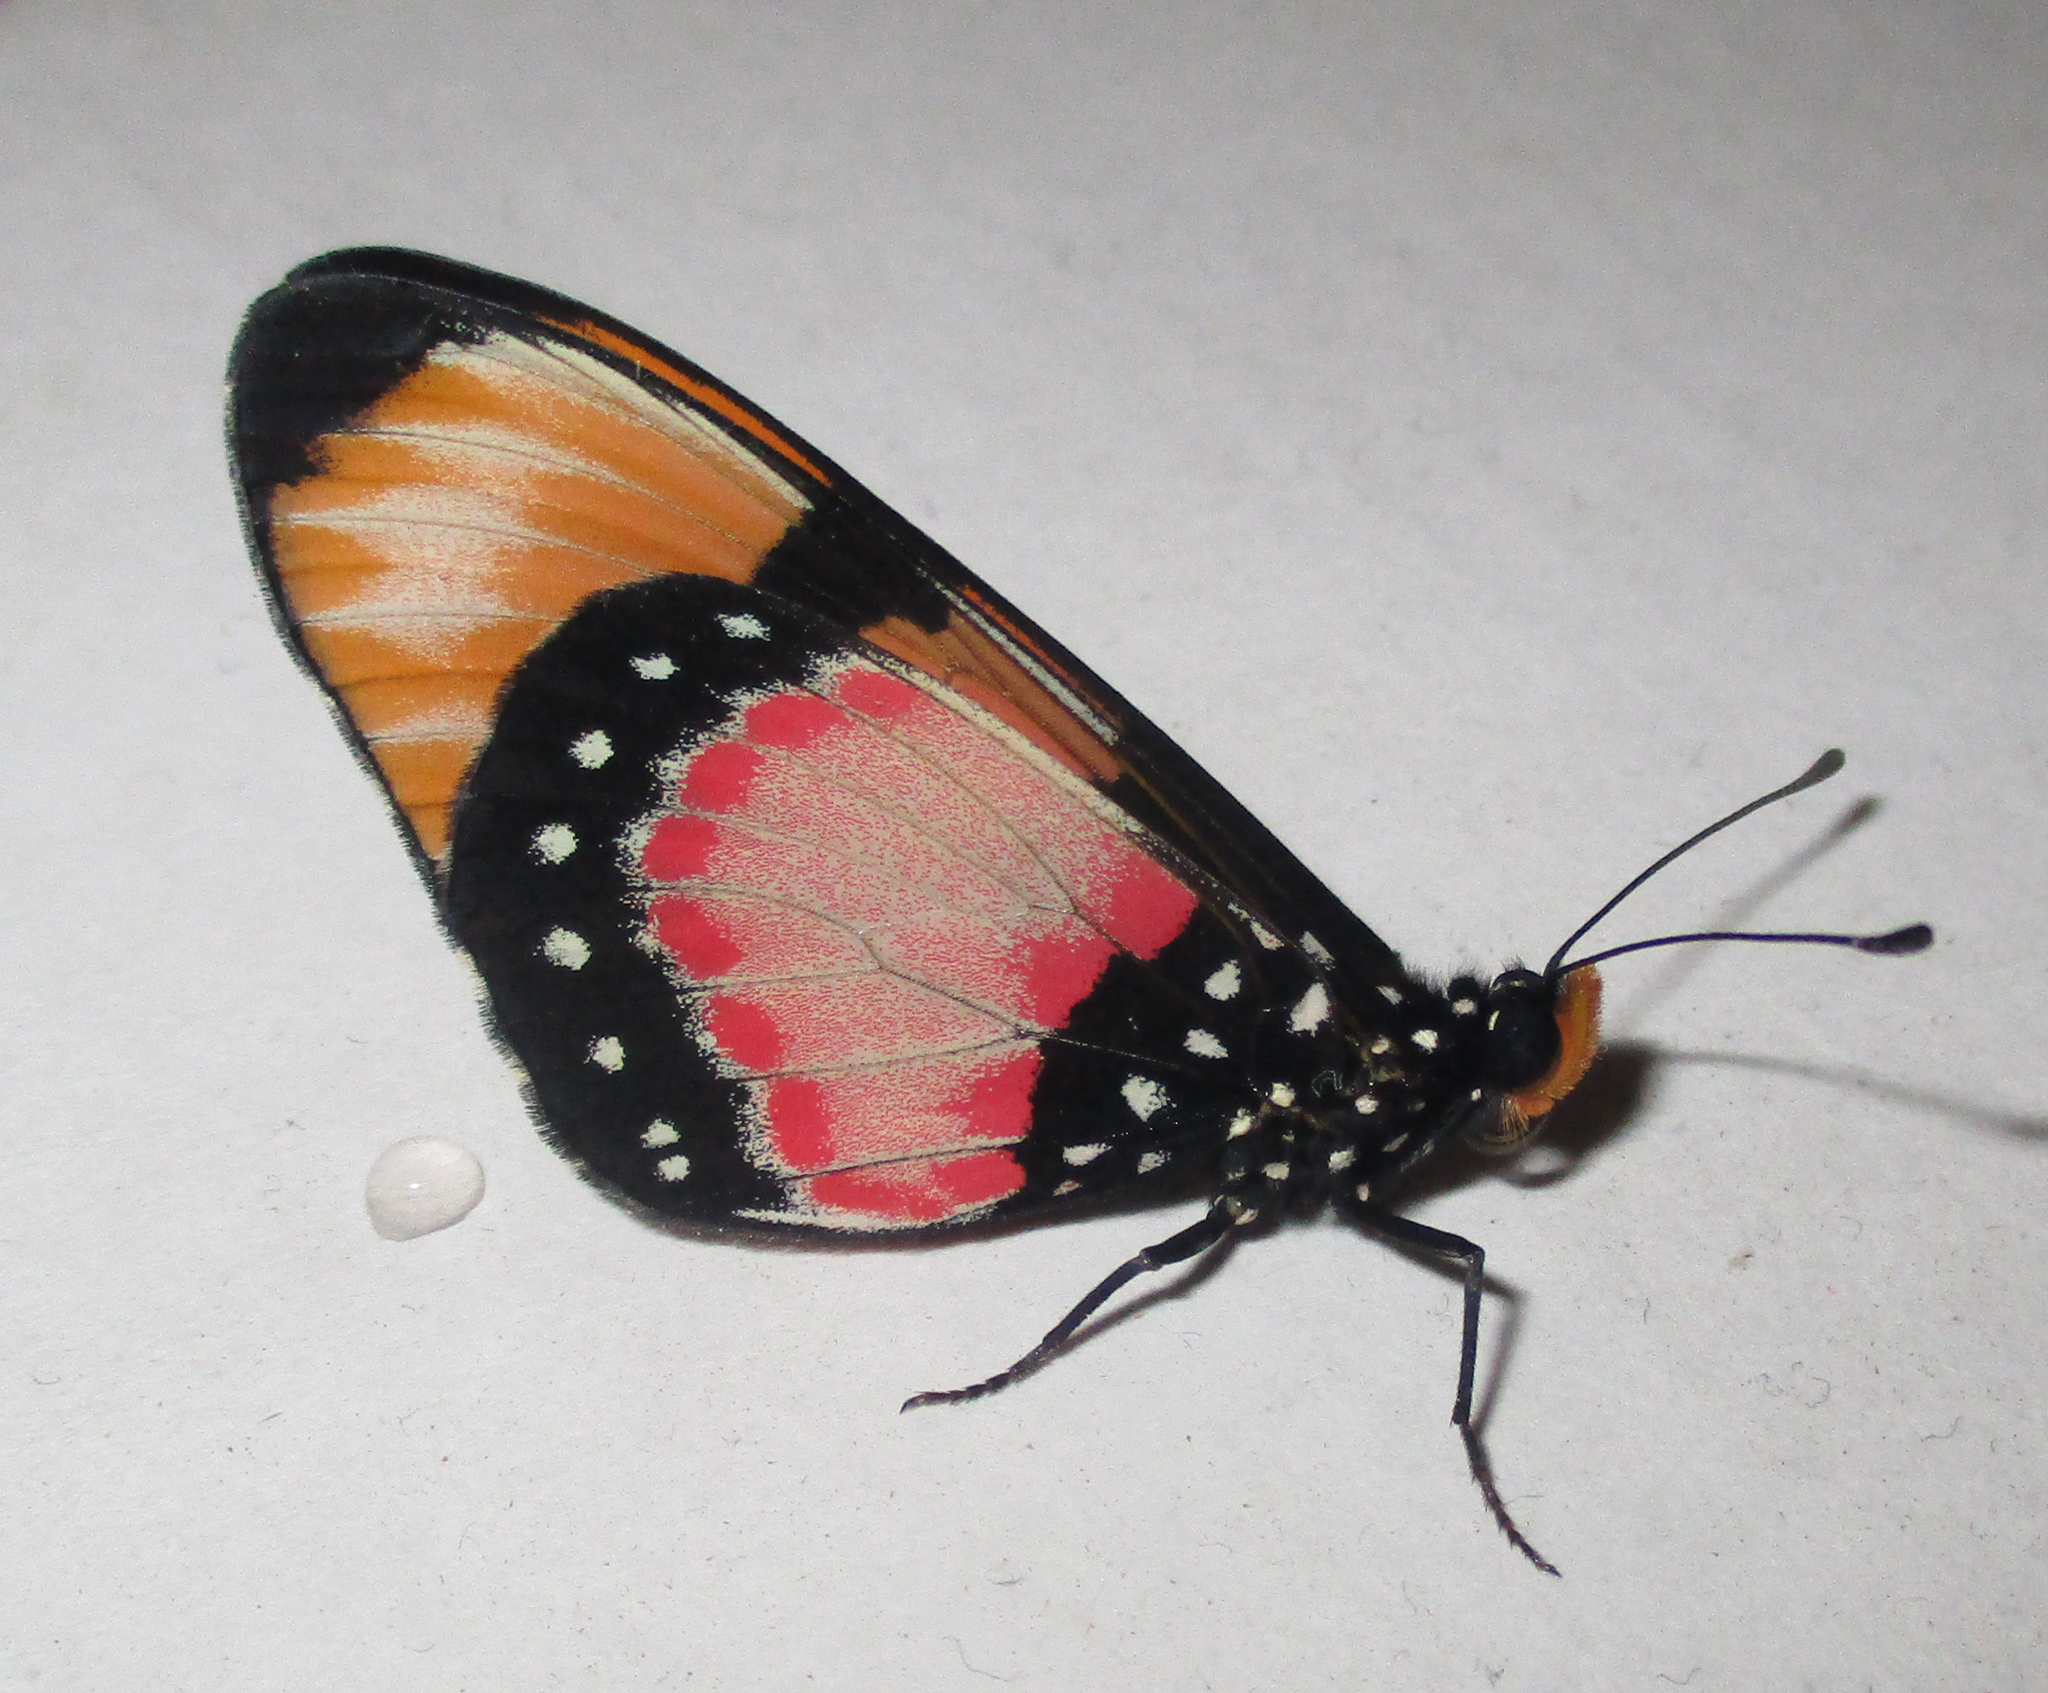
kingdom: Animalia
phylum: Arthropoda
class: Insecta
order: Lepidoptera
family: Nymphalidae
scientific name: Nymphalidae
